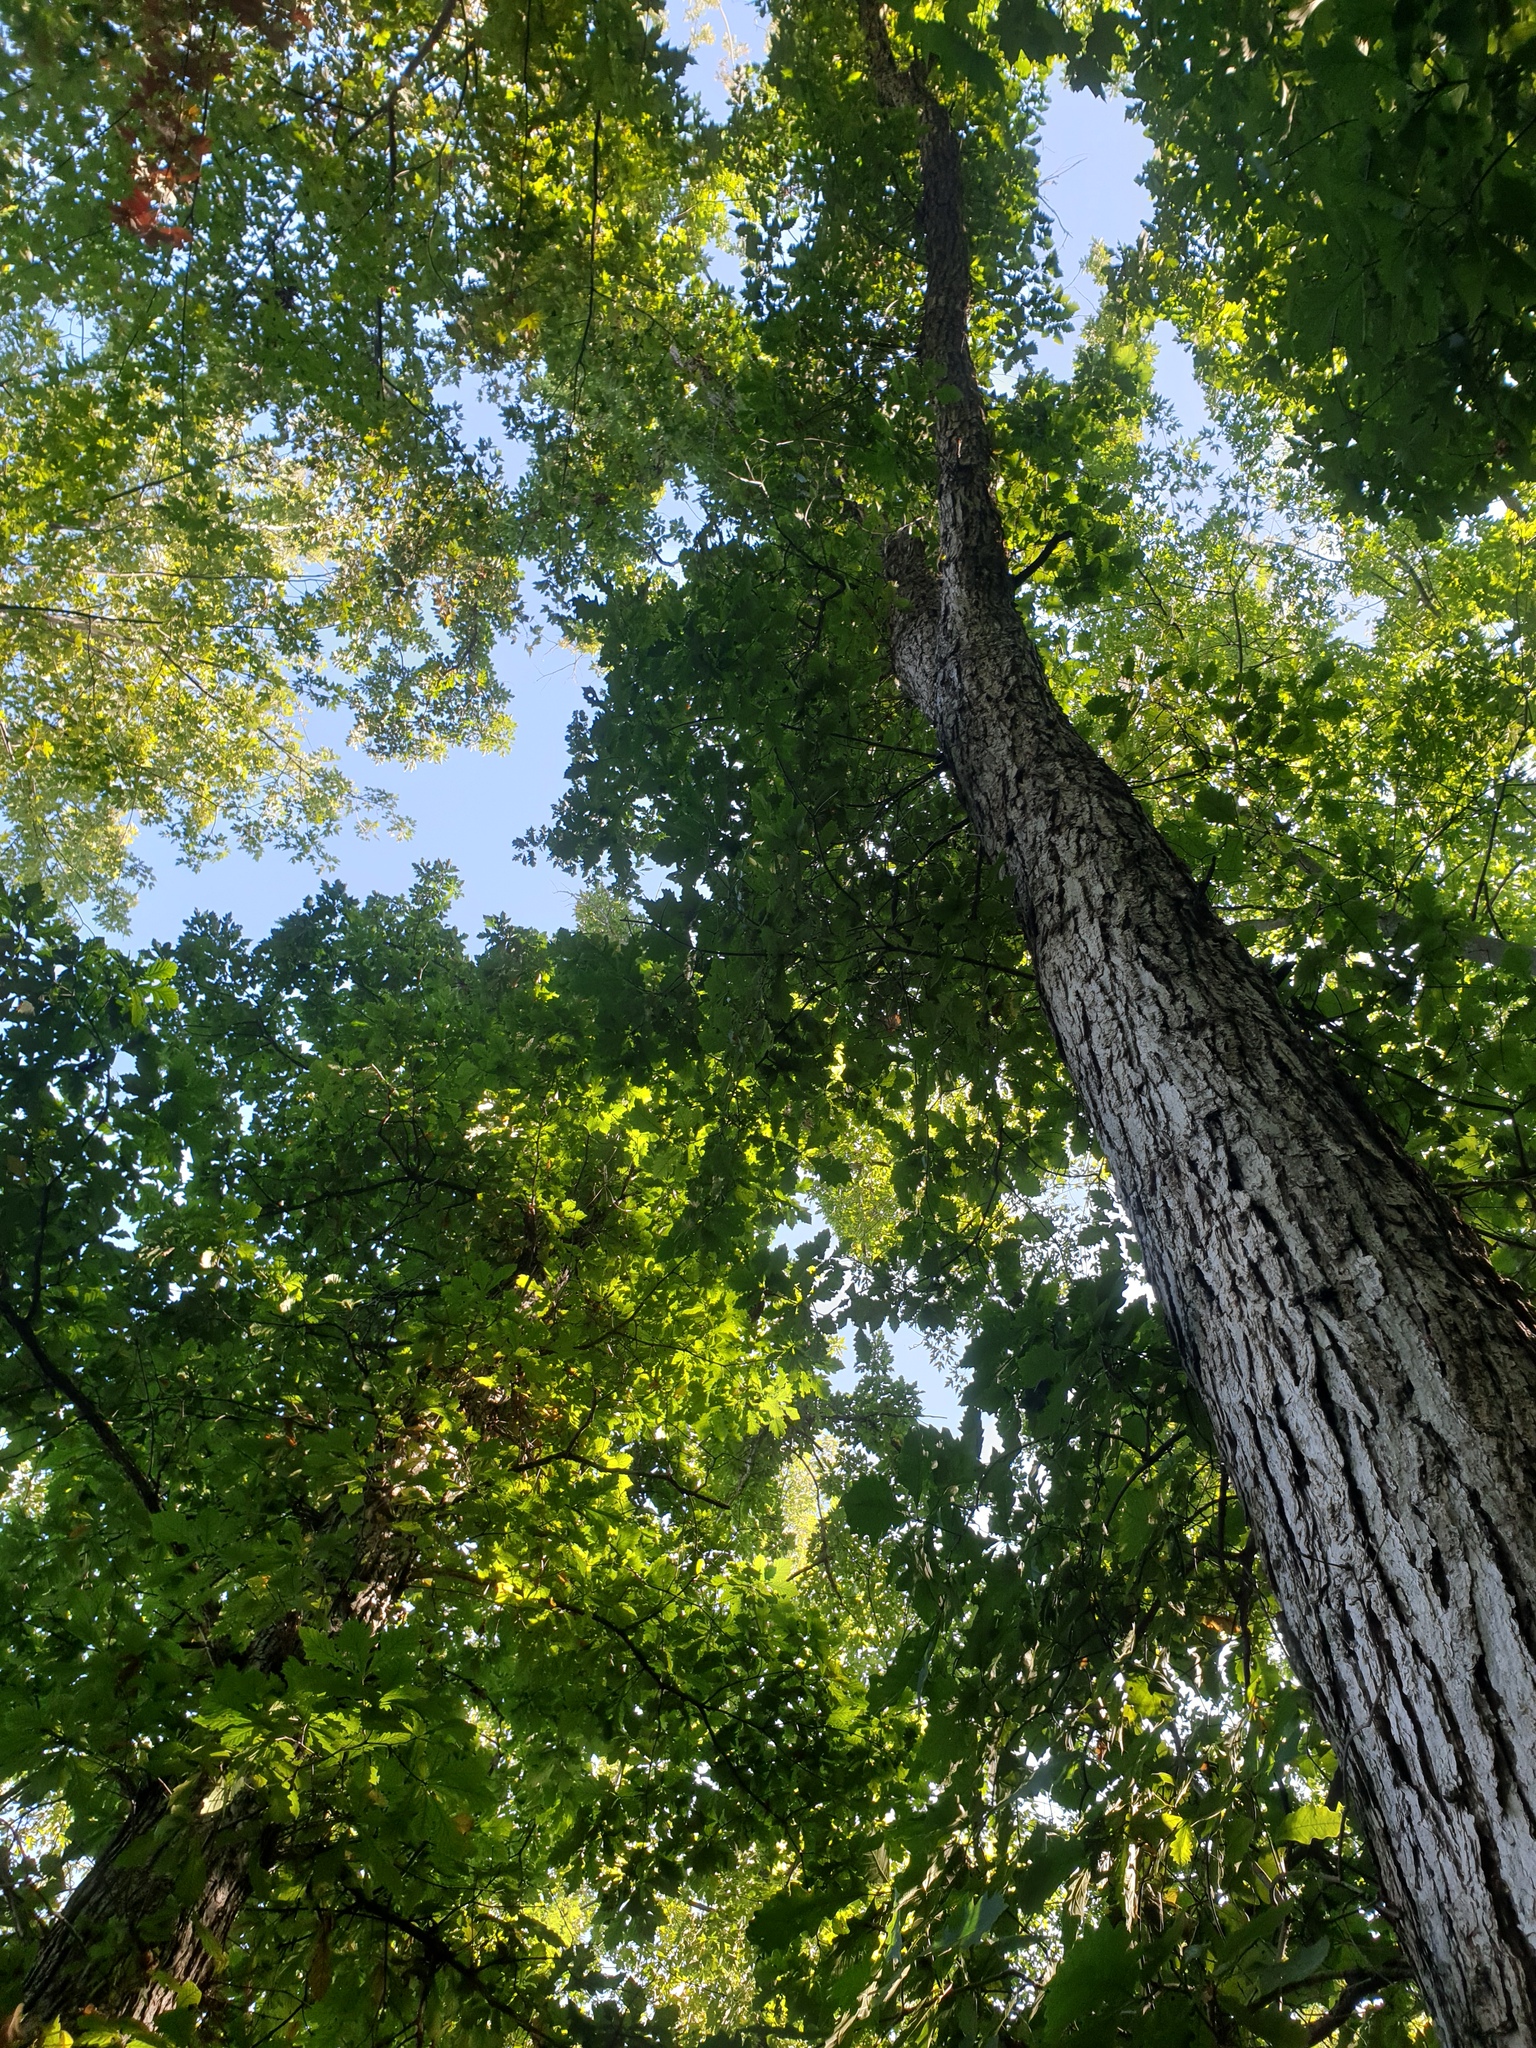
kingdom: Plantae
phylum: Tracheophyta
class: Magnoliopsida
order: Fagales
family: Fagaceae
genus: Quercus
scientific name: Quercus bicolor
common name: Swamp white oak
